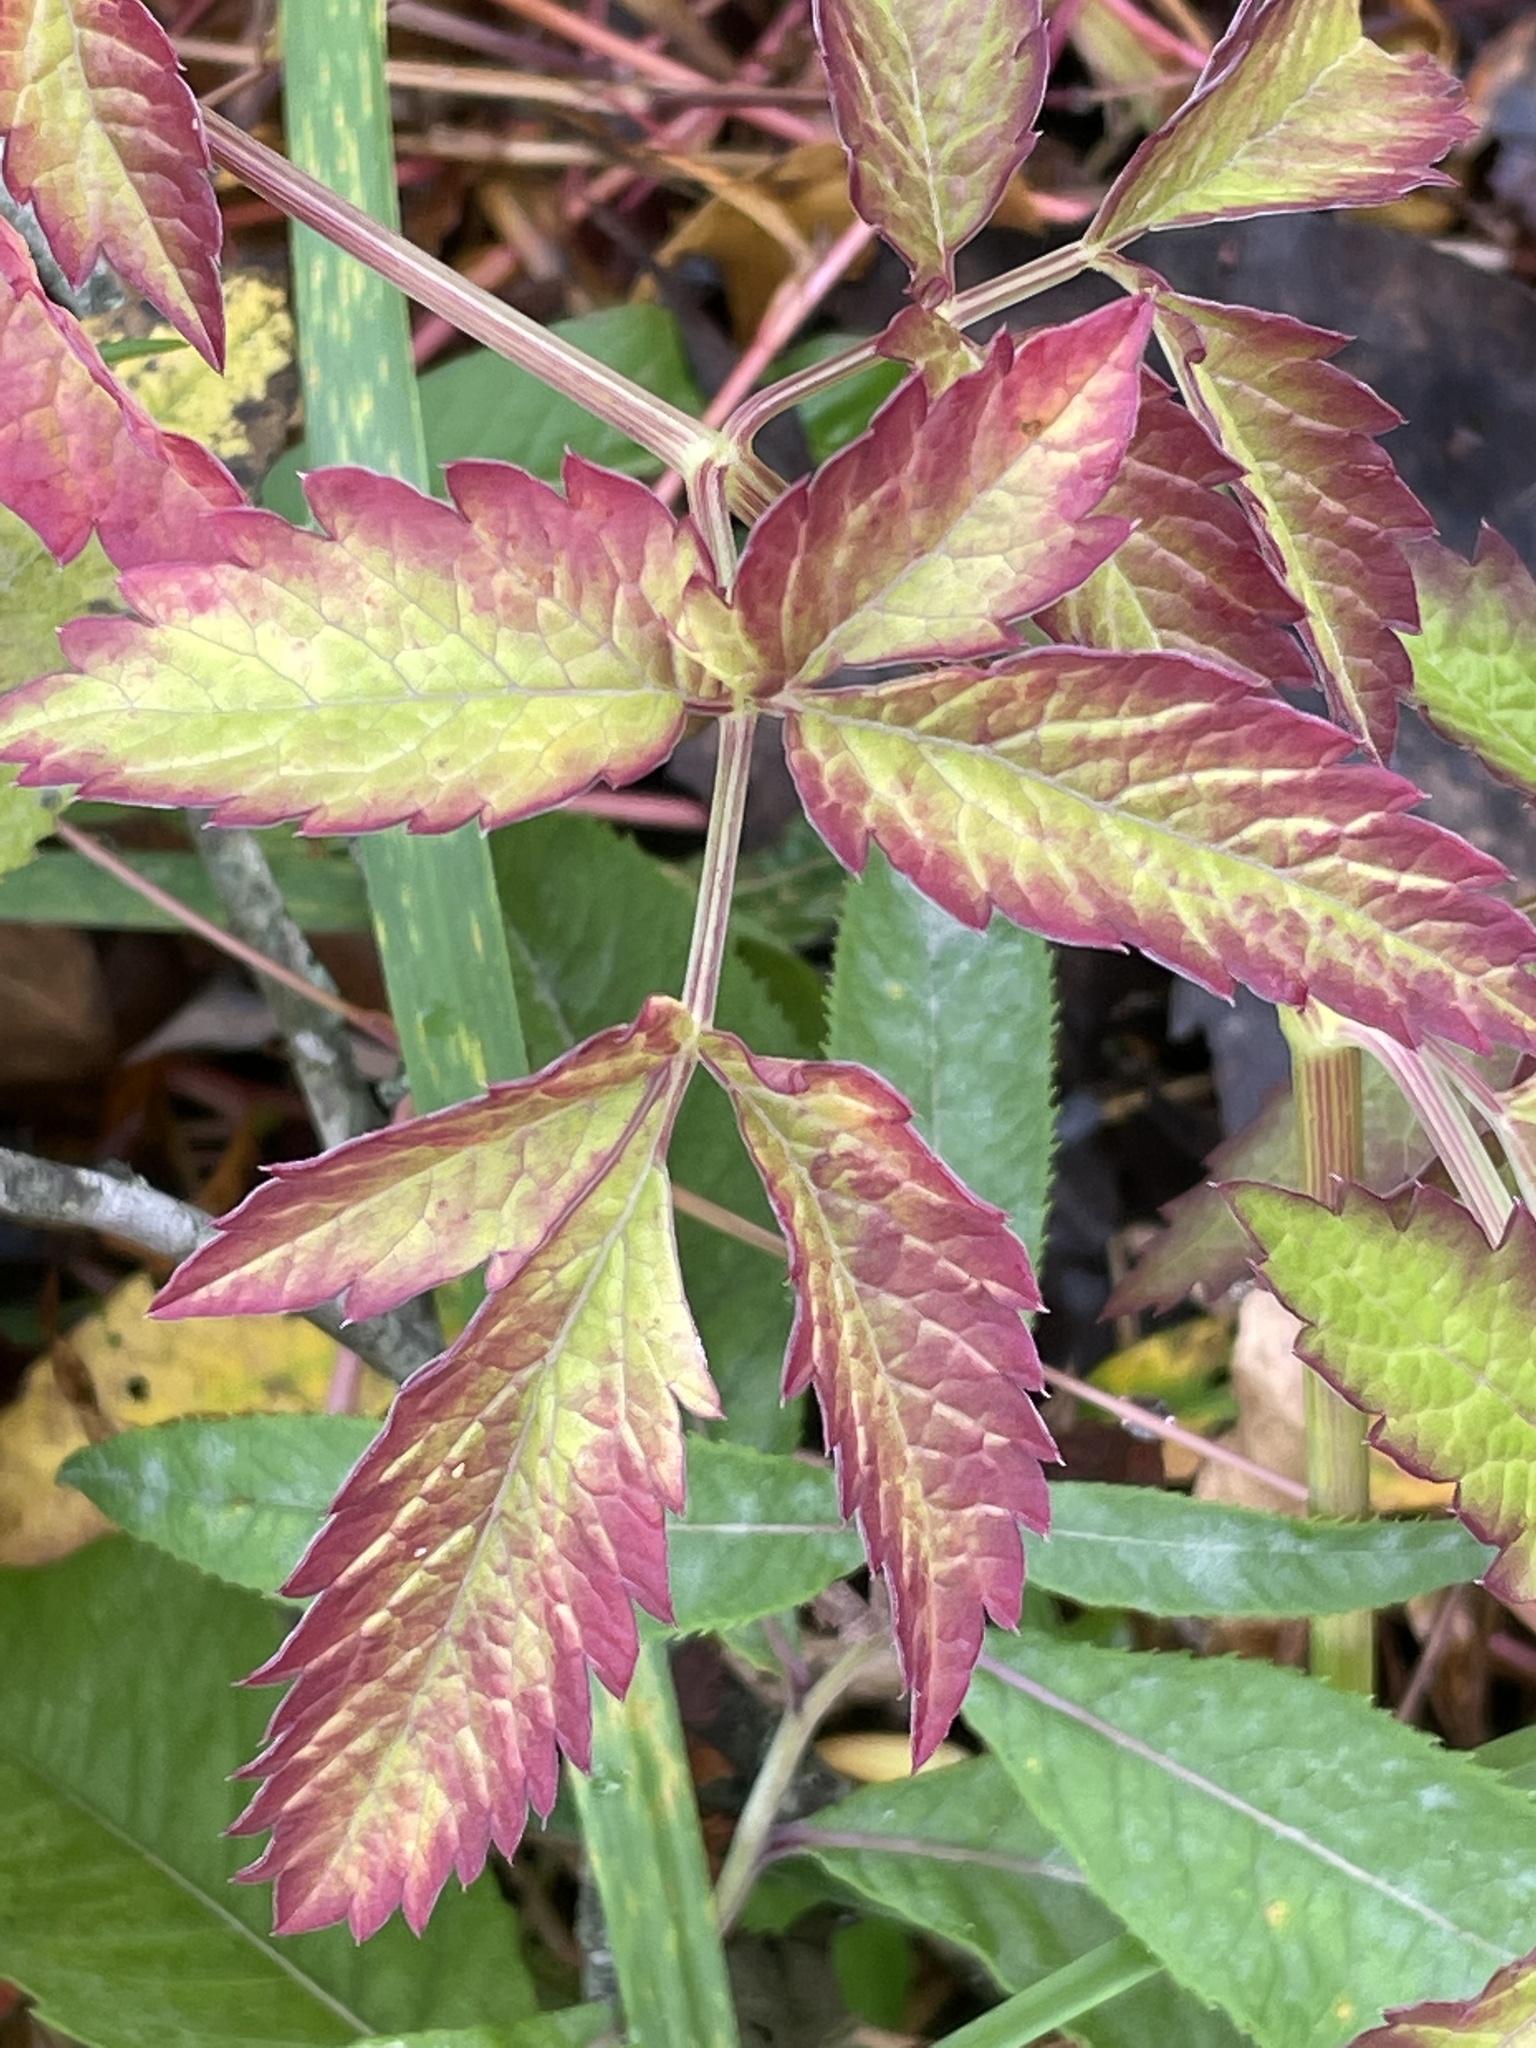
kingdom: Plantae
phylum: Tracheophyta
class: Magnoliopsida
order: Apiales
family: Apiaceae
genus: Cicuta
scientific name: Cicuta maculata
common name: Spotted cowbane
